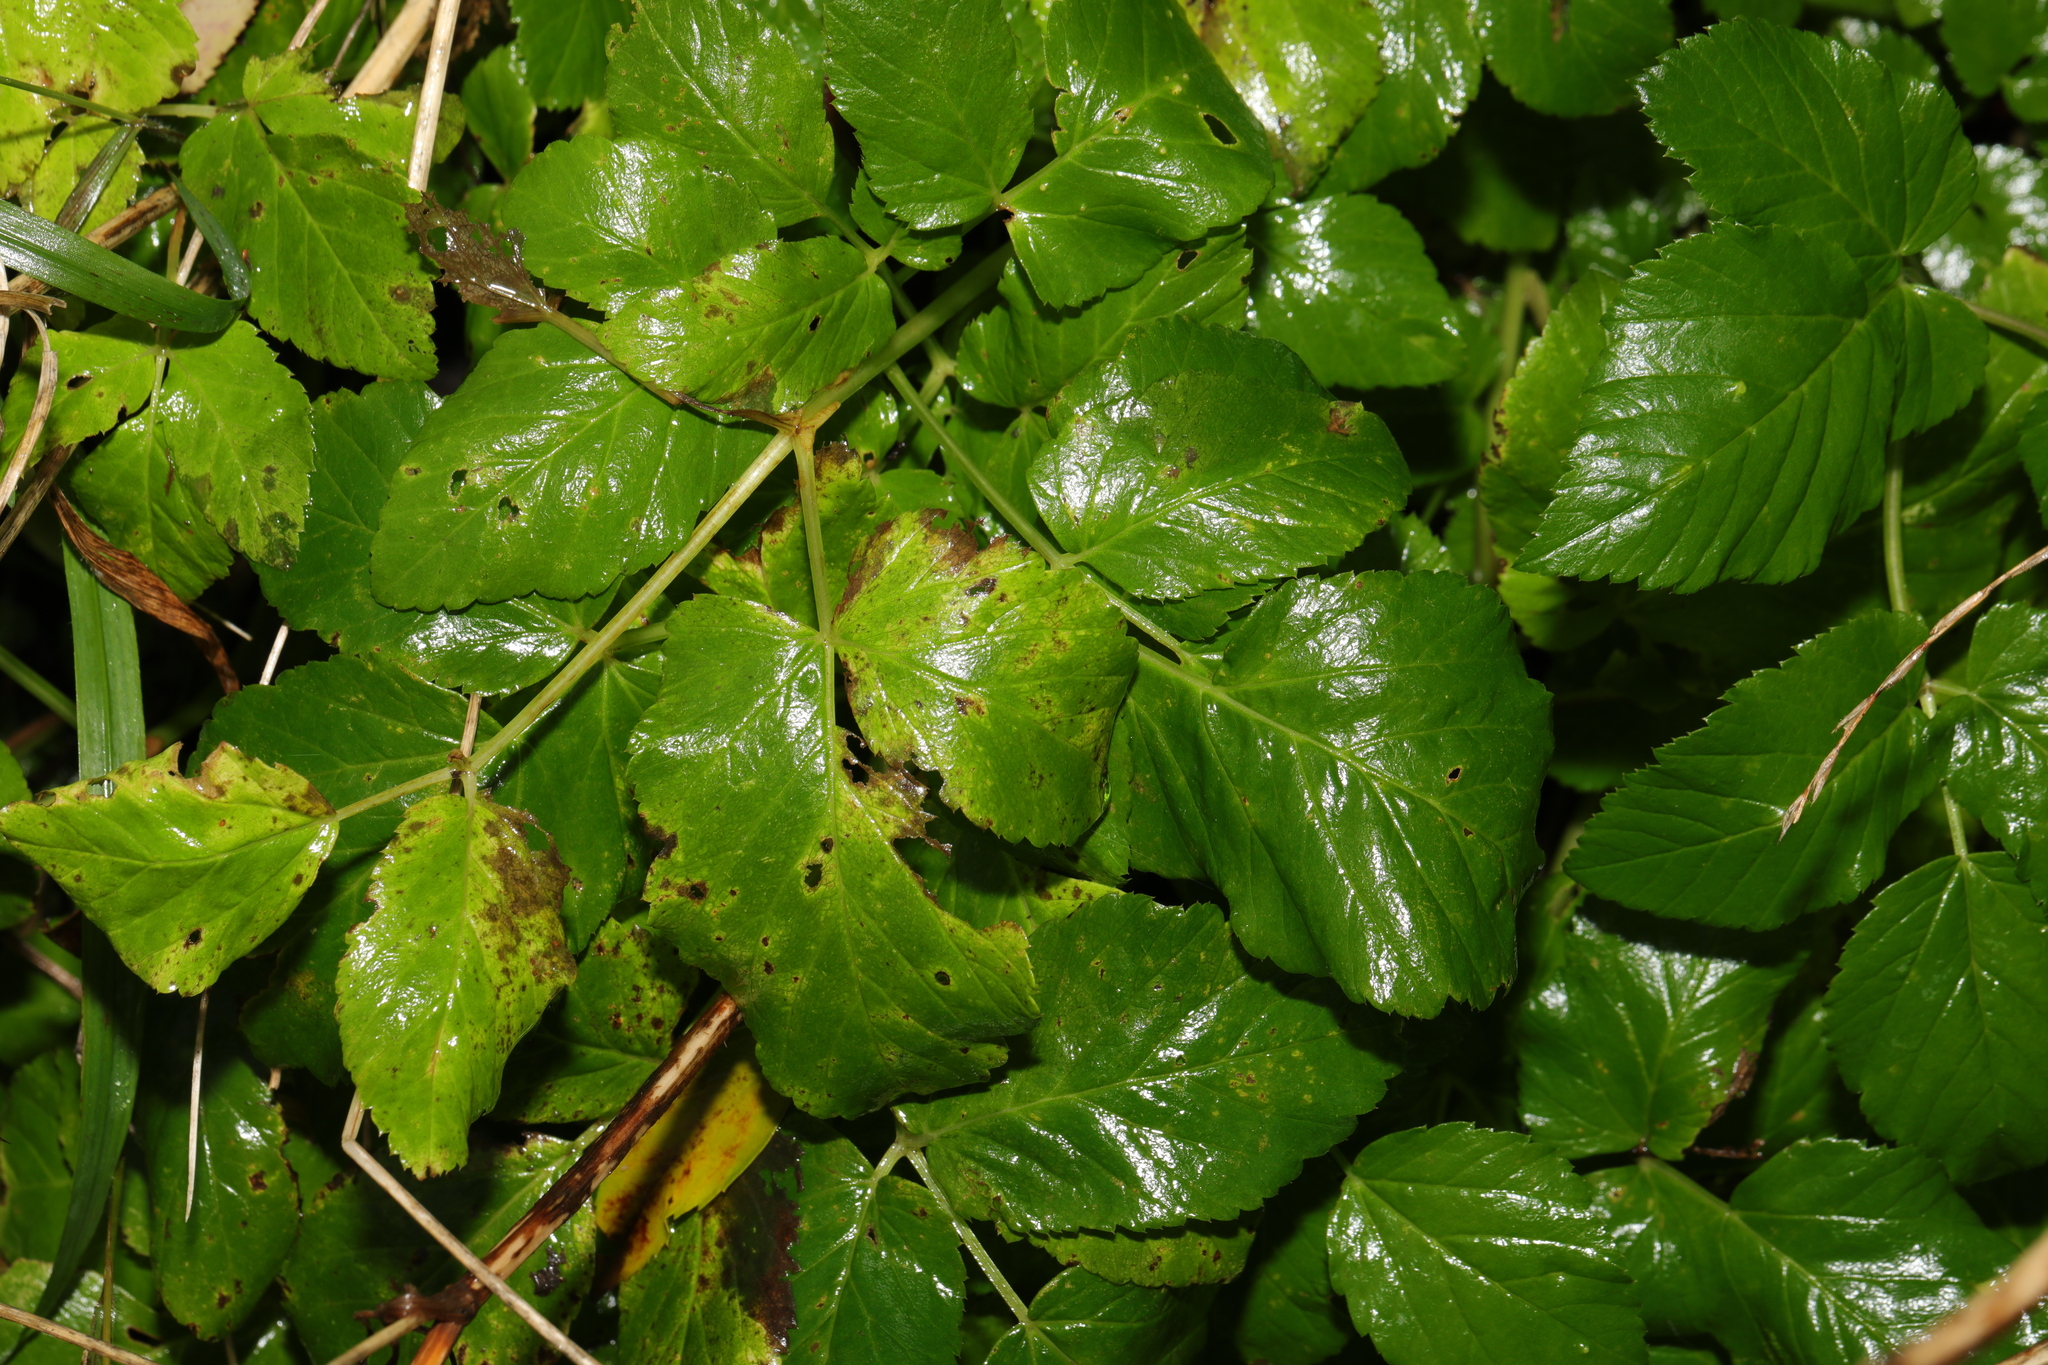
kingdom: Plantae
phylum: Tracheophyta
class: Magnoliopsida
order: Apiales
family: Apiaceae
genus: Aegopodium
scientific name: Aegopodium podagraria
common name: Ground-elder
